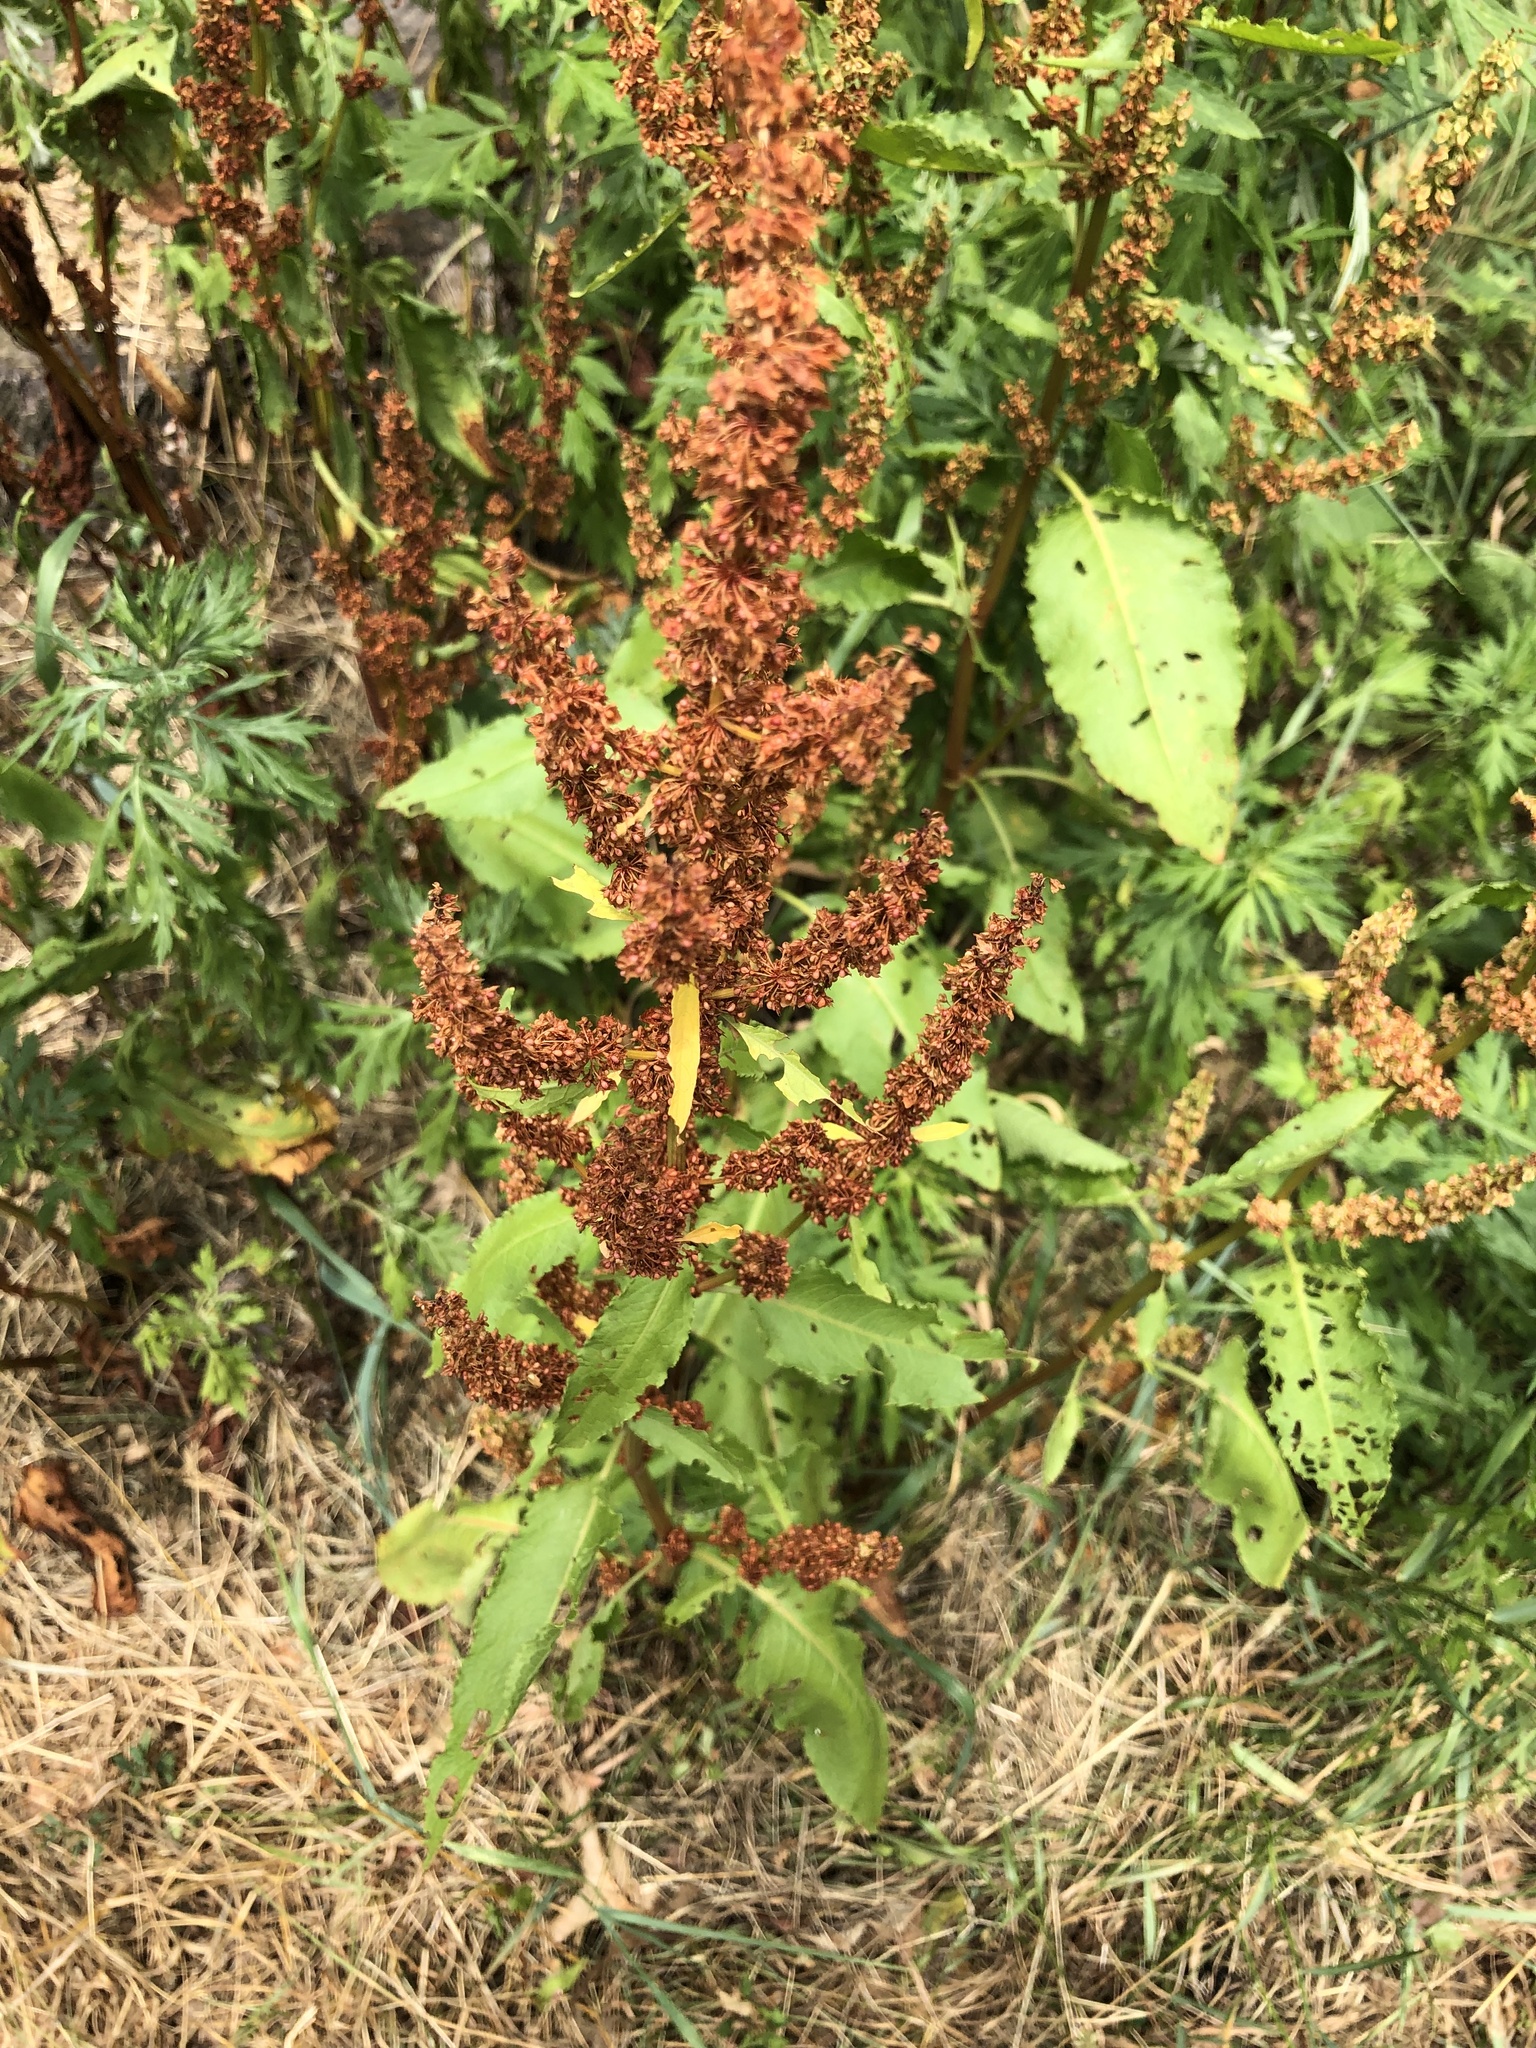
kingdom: Plantae
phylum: Tracheophyta
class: Magnoliopsida
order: Caryophyllales
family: Polygonaceae
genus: Rumex
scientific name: Rumex crispus
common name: Curled dock
